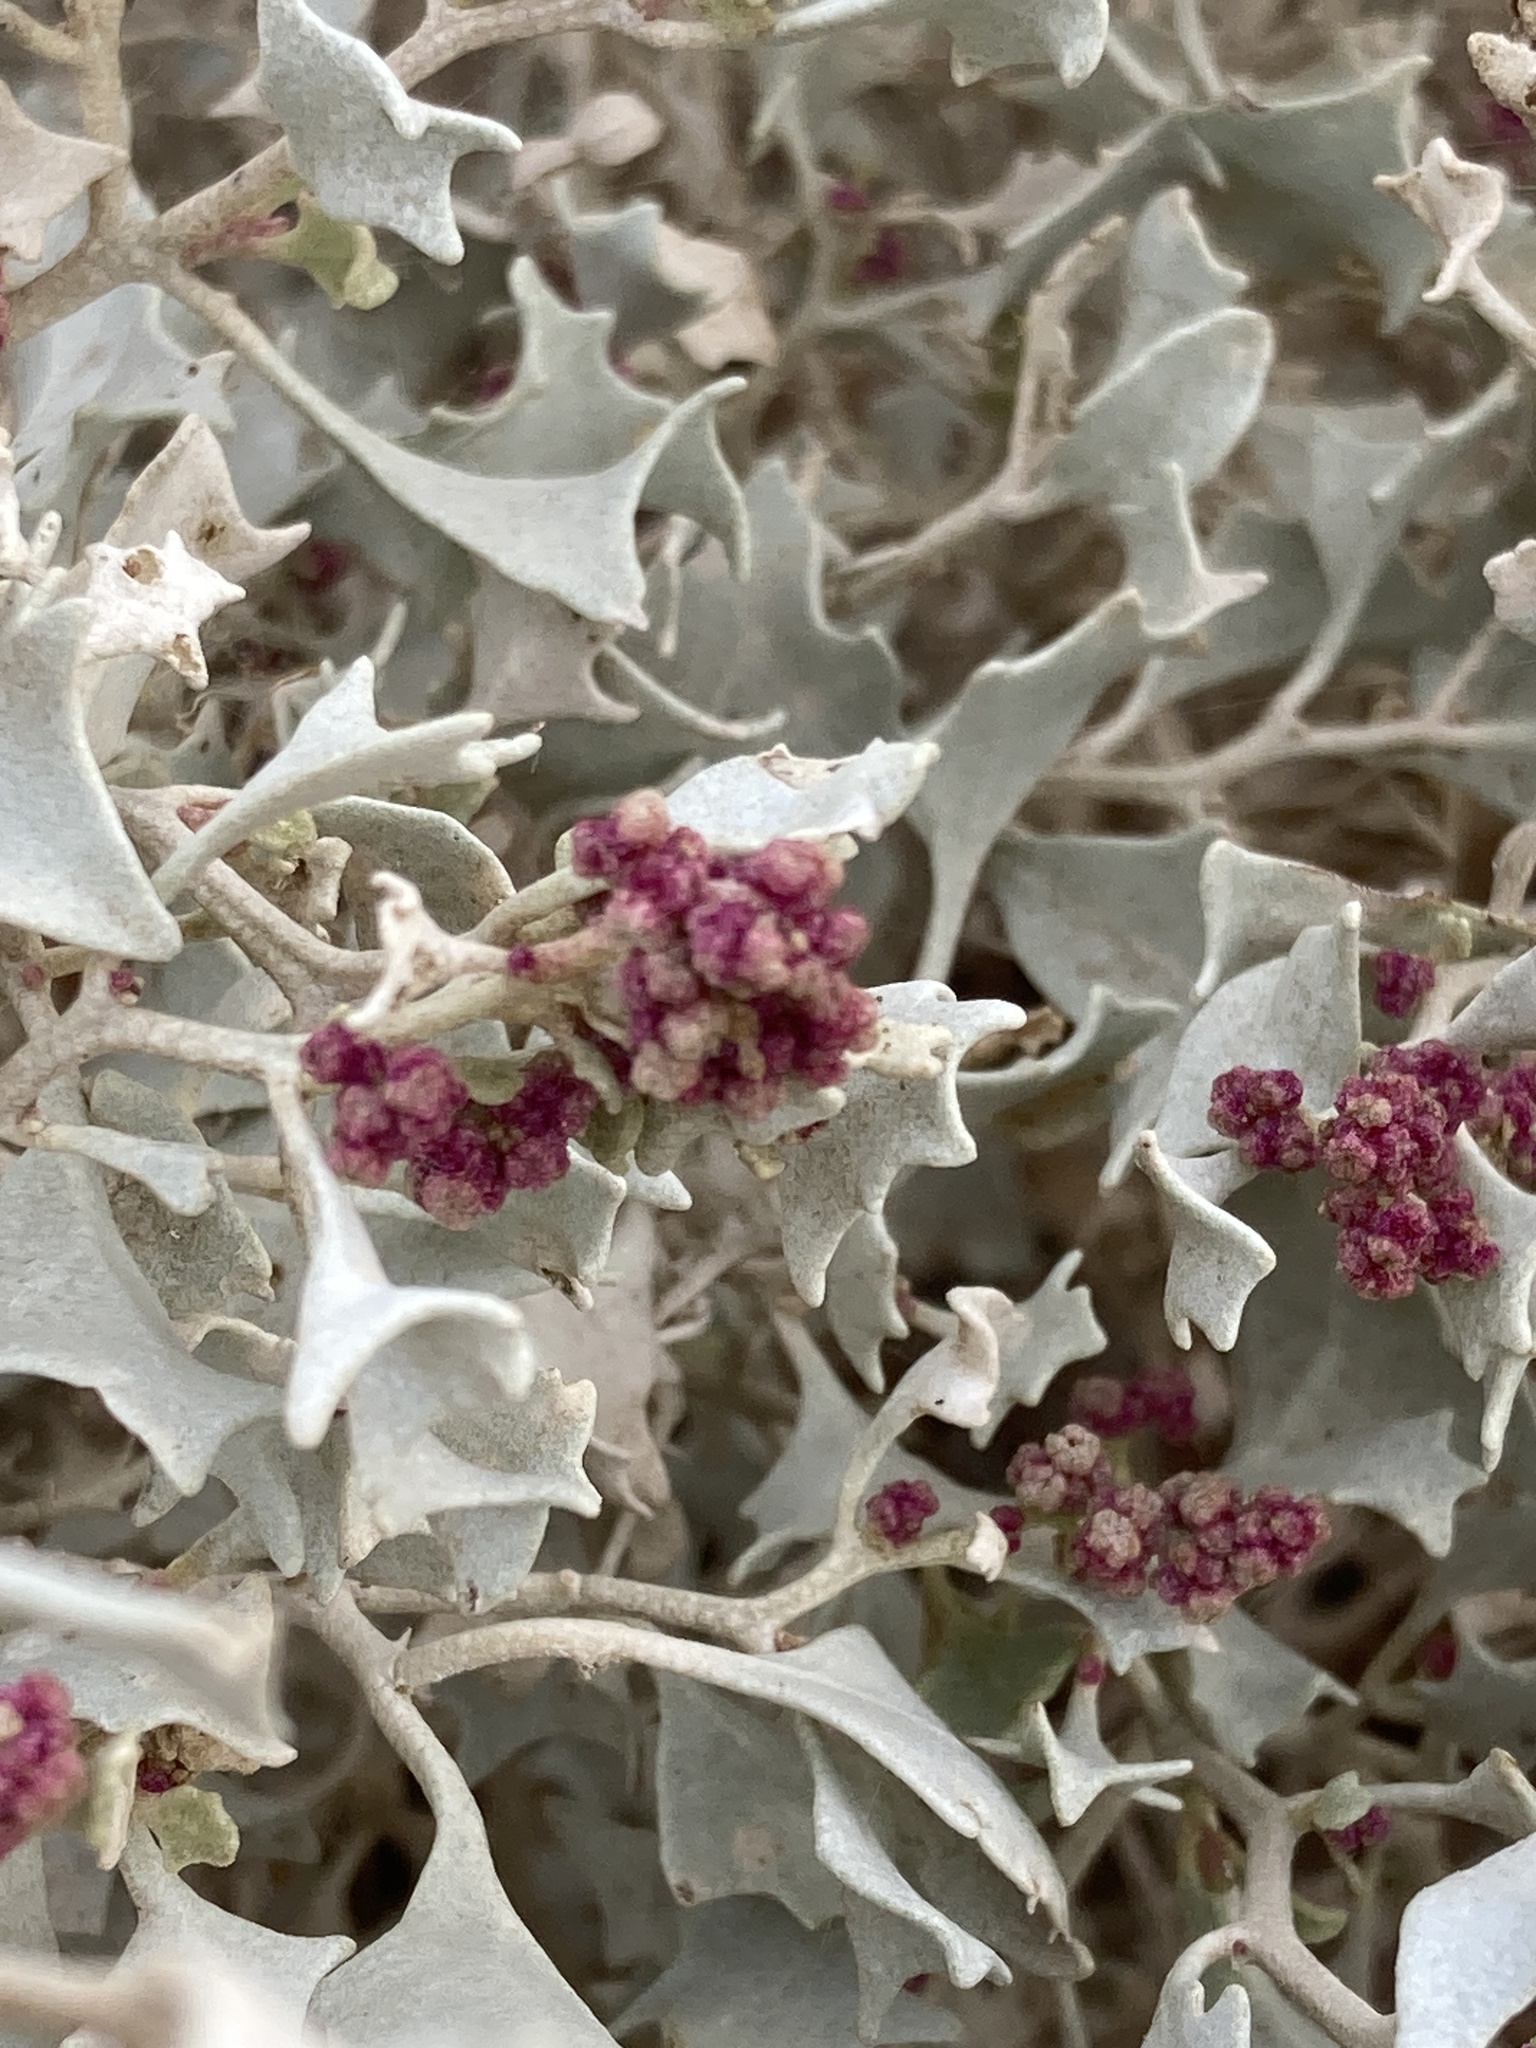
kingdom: Plantae
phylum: Tracheophyta
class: Magnoliopsida
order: Caryophyllales
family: Amaranthaceae
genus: Atriplex
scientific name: Atriplex hymenelytra
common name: Desert-holly
